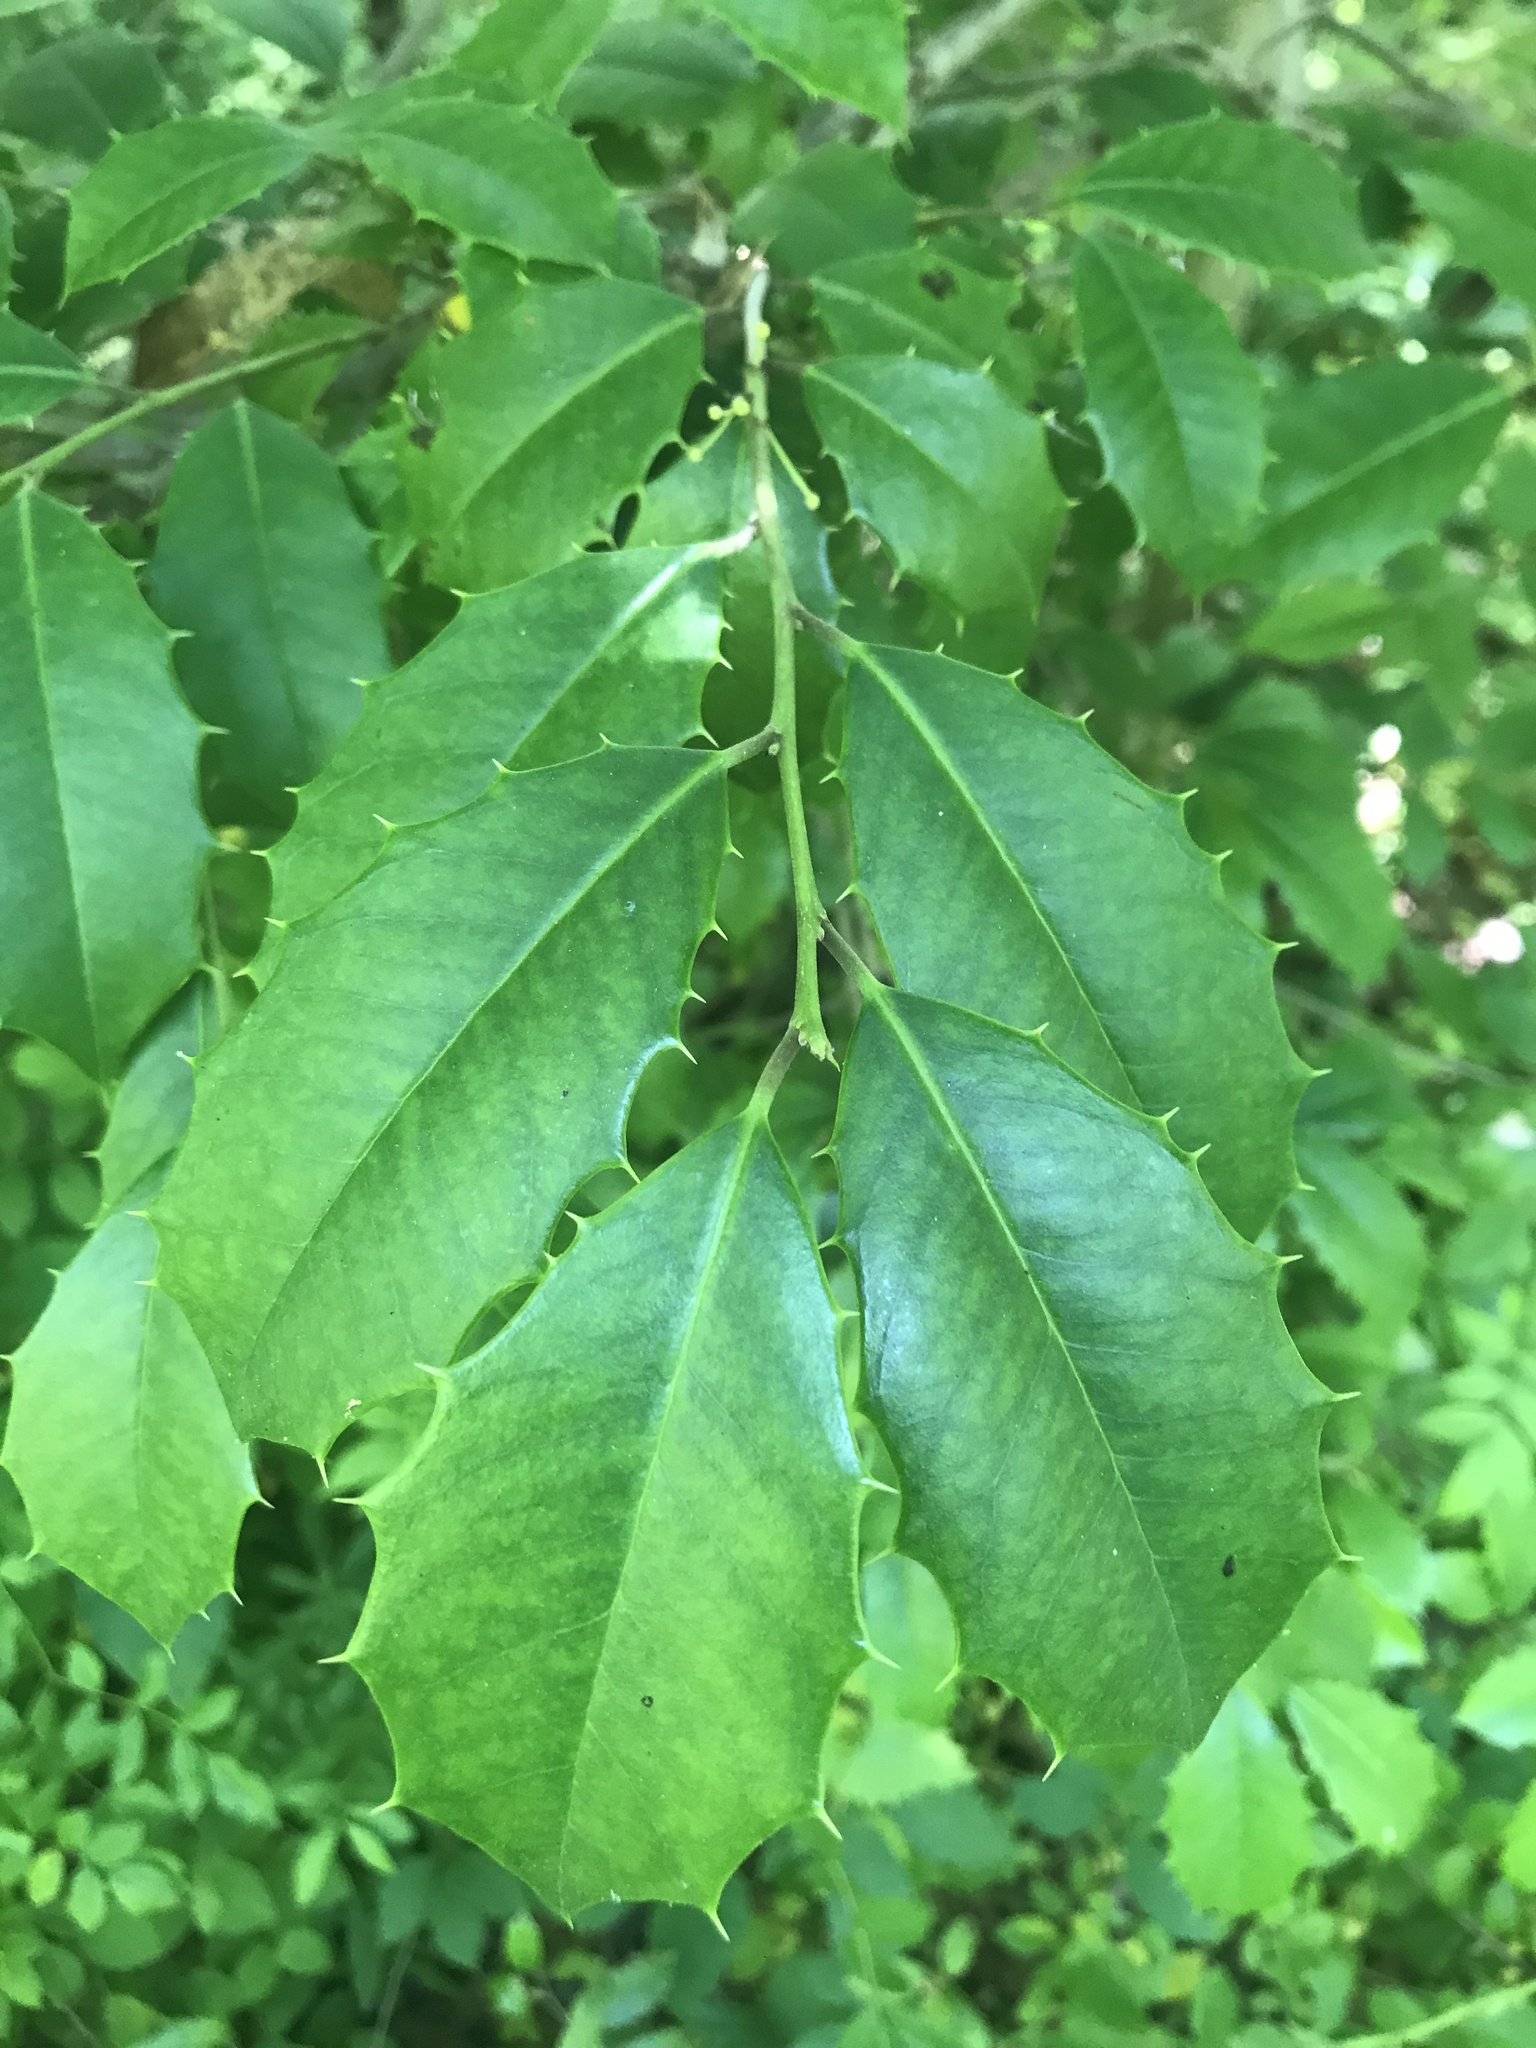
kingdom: Plantae
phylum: Tracheophyta
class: Magnoliopsida
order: Aquifoliales
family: Aquifoliaceae
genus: Ilex
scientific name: Ilex opaca
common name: American holly
